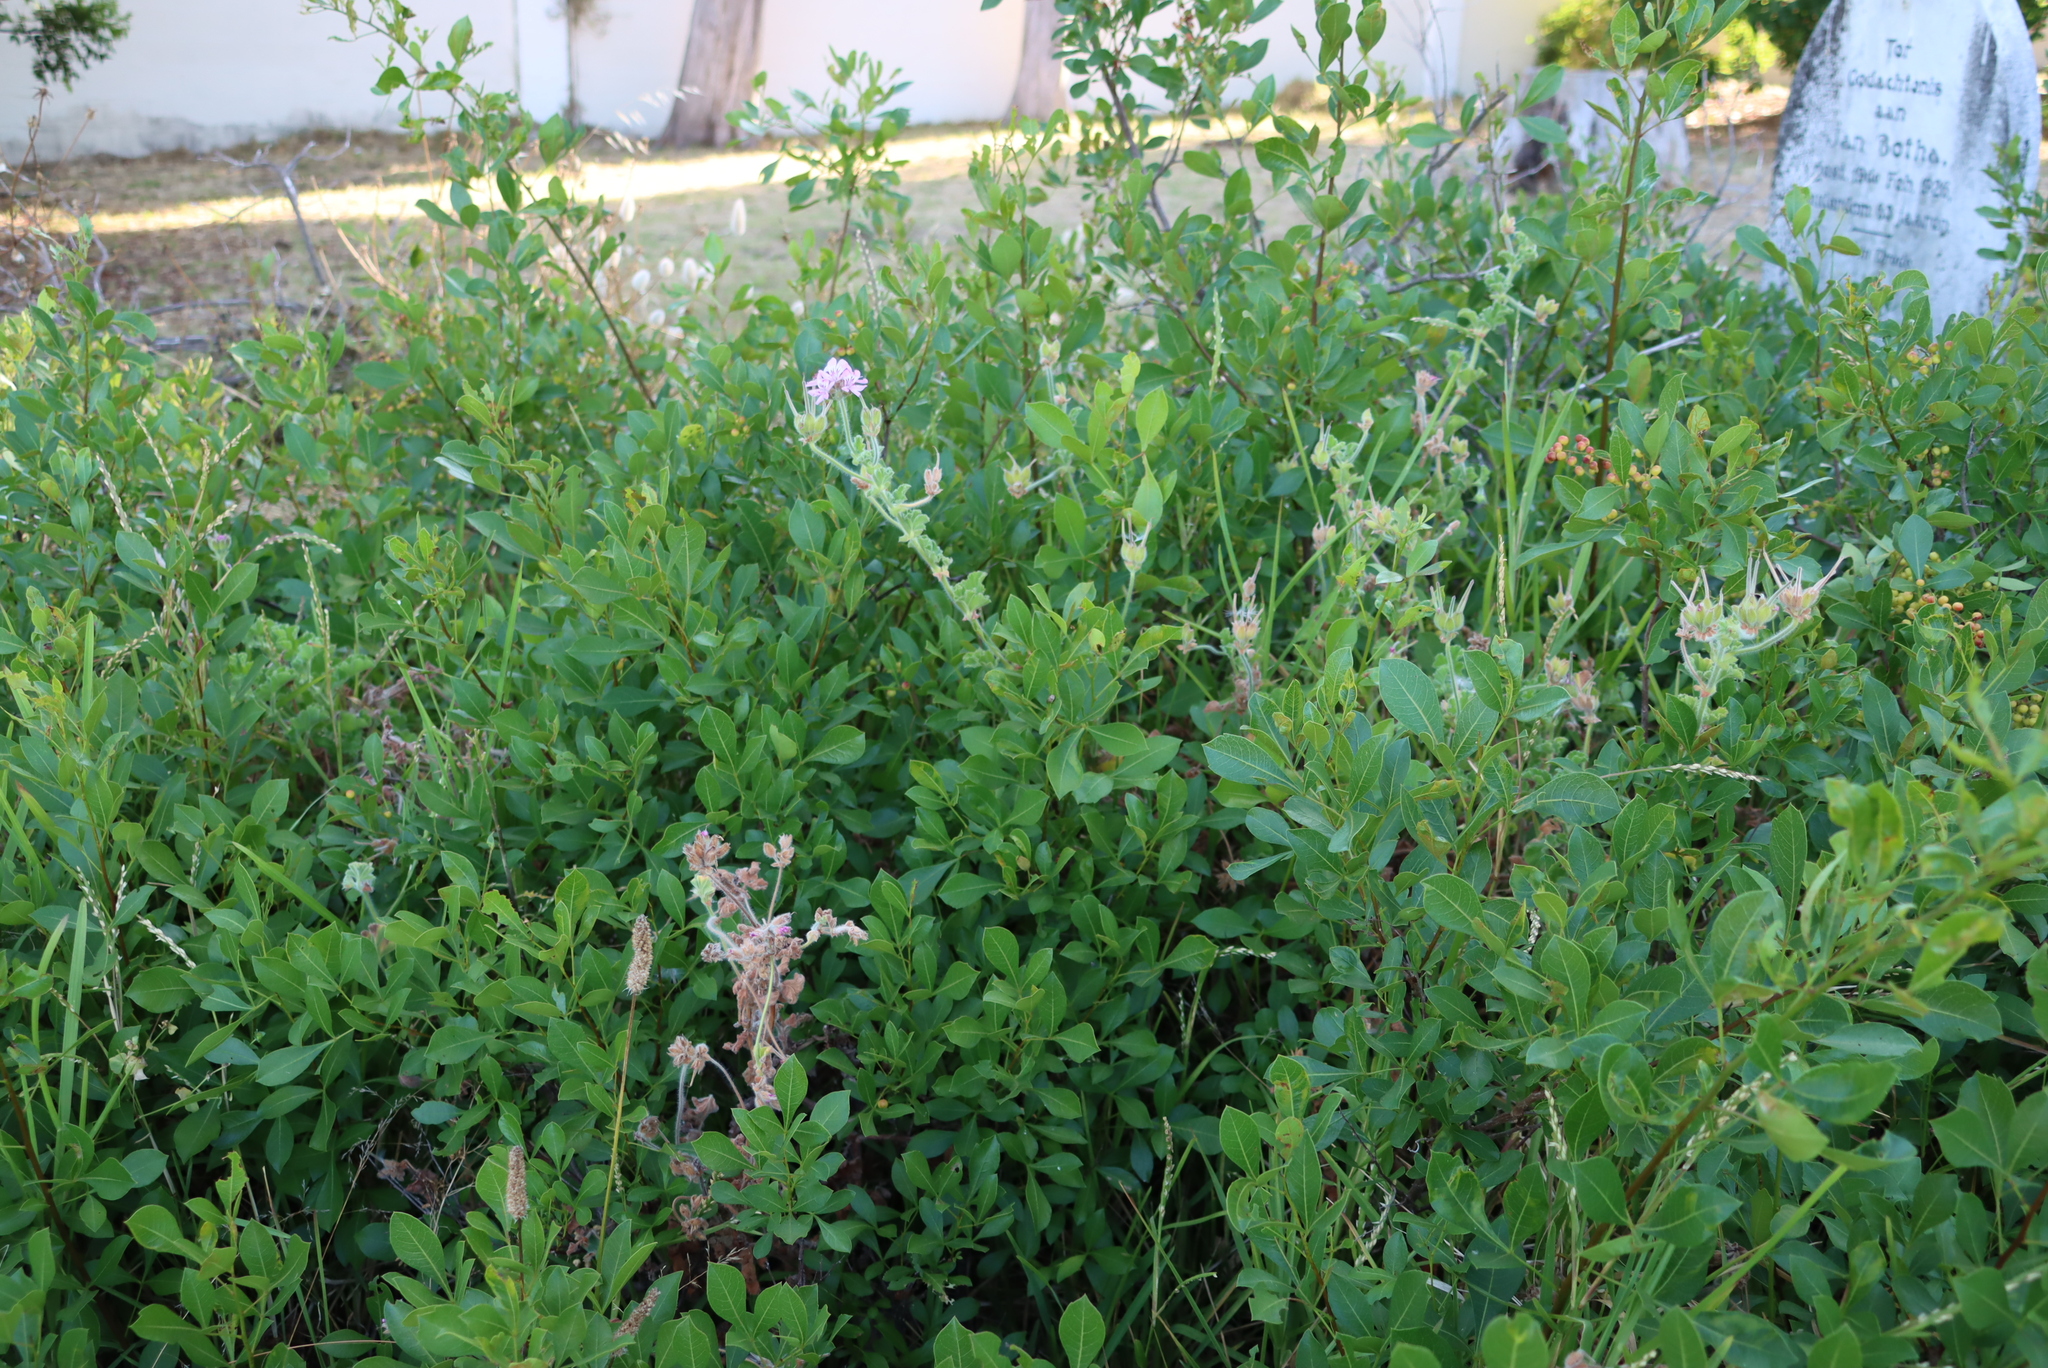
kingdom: Plantae
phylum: Tracheophyta
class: Magnoliopsida
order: Sapindales
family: Anacardiaceae
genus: Searsia
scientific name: Searsia laevigata
